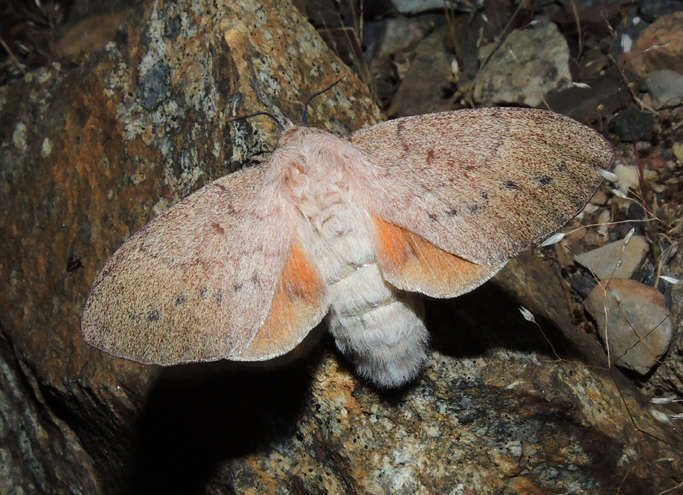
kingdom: Animalia
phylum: Arthropoda
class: Insecta
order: Lepidoptera
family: Lasiocampidae
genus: Entometa
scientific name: Entometa guttularis
